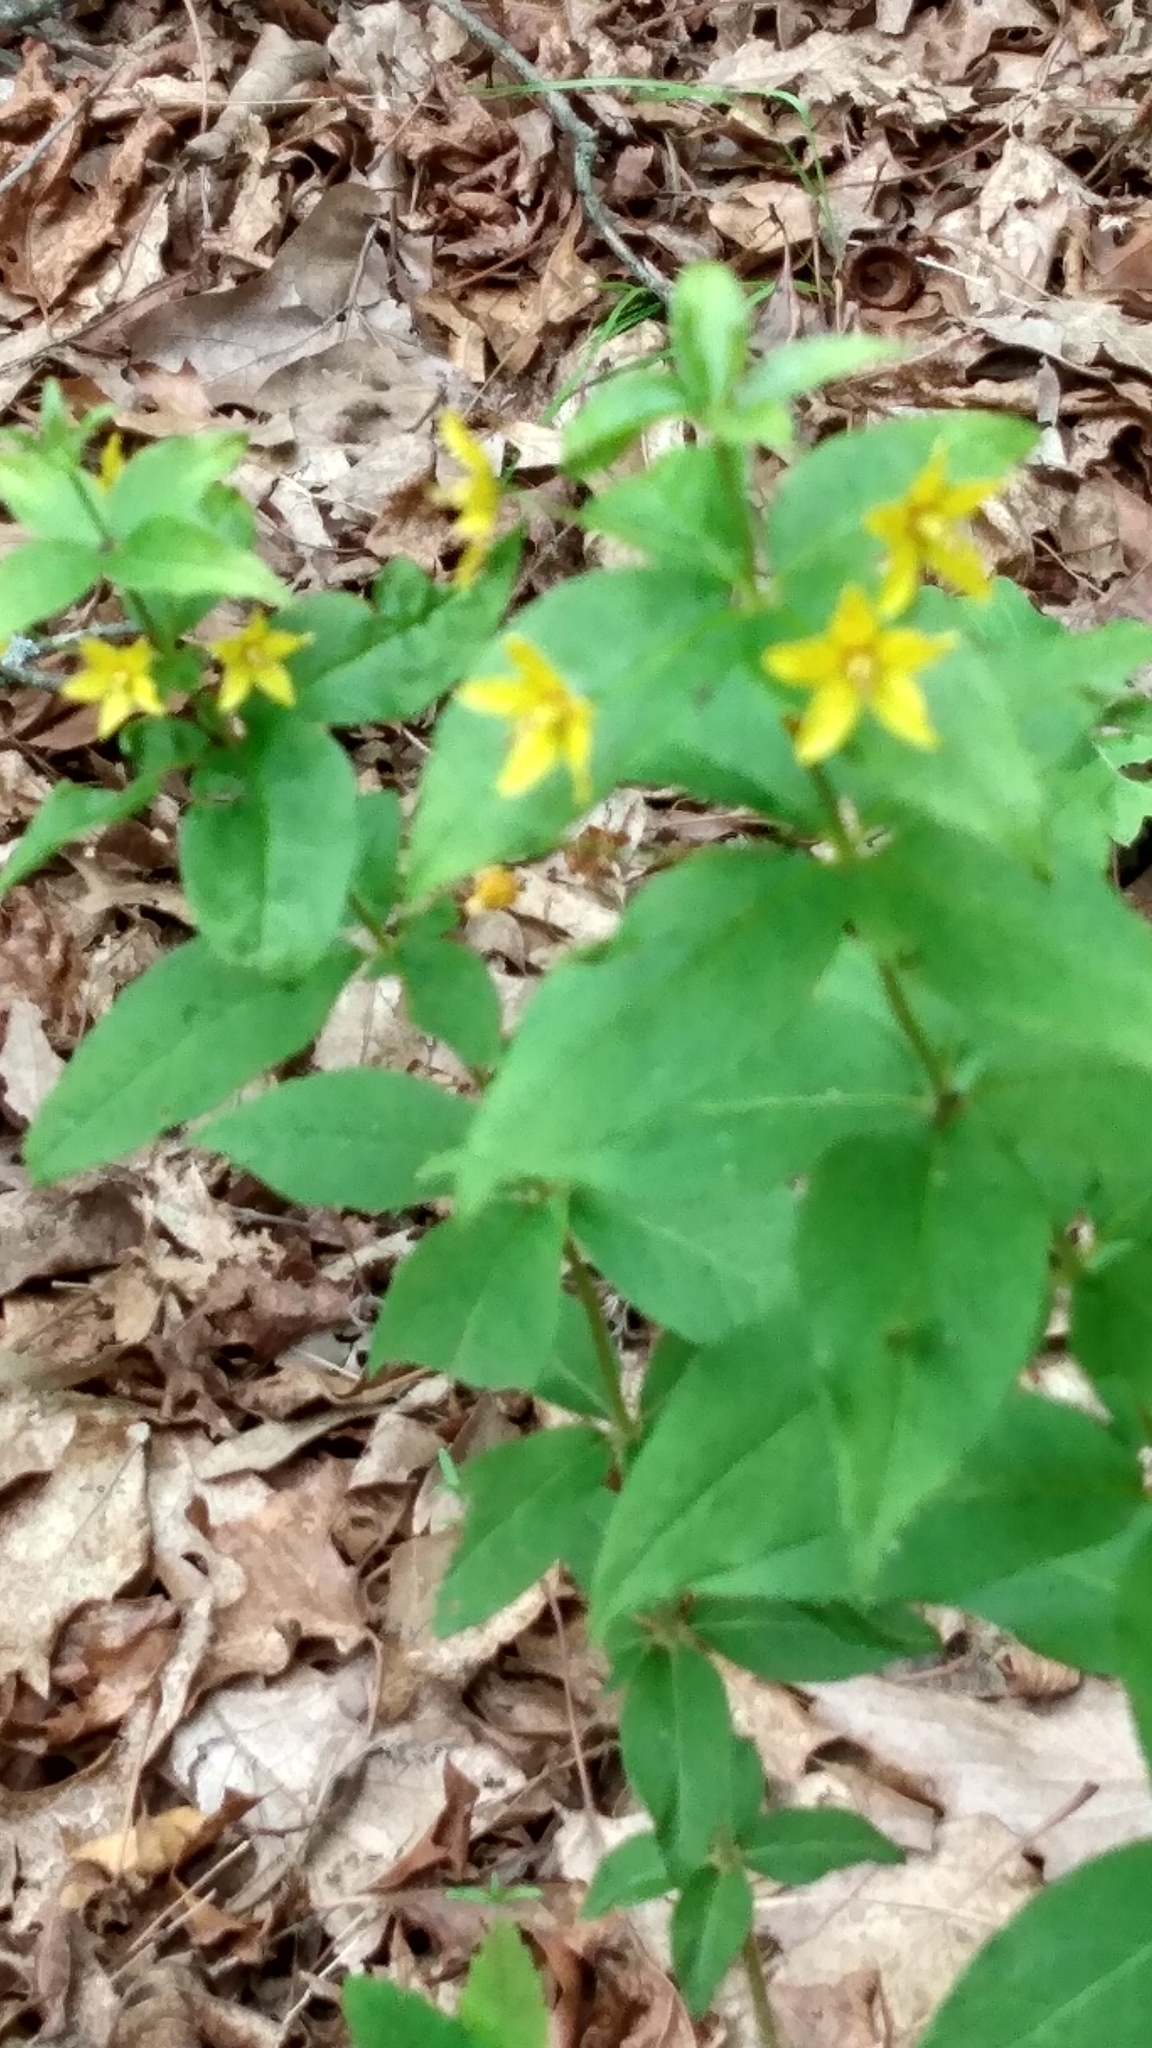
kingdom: Plantae
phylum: Tracheophyta
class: Magnoliopsida
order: Ericales
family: Primulaceae
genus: Lysimachia
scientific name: Lysimachia quadrifolia
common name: Whorled loosestrife
